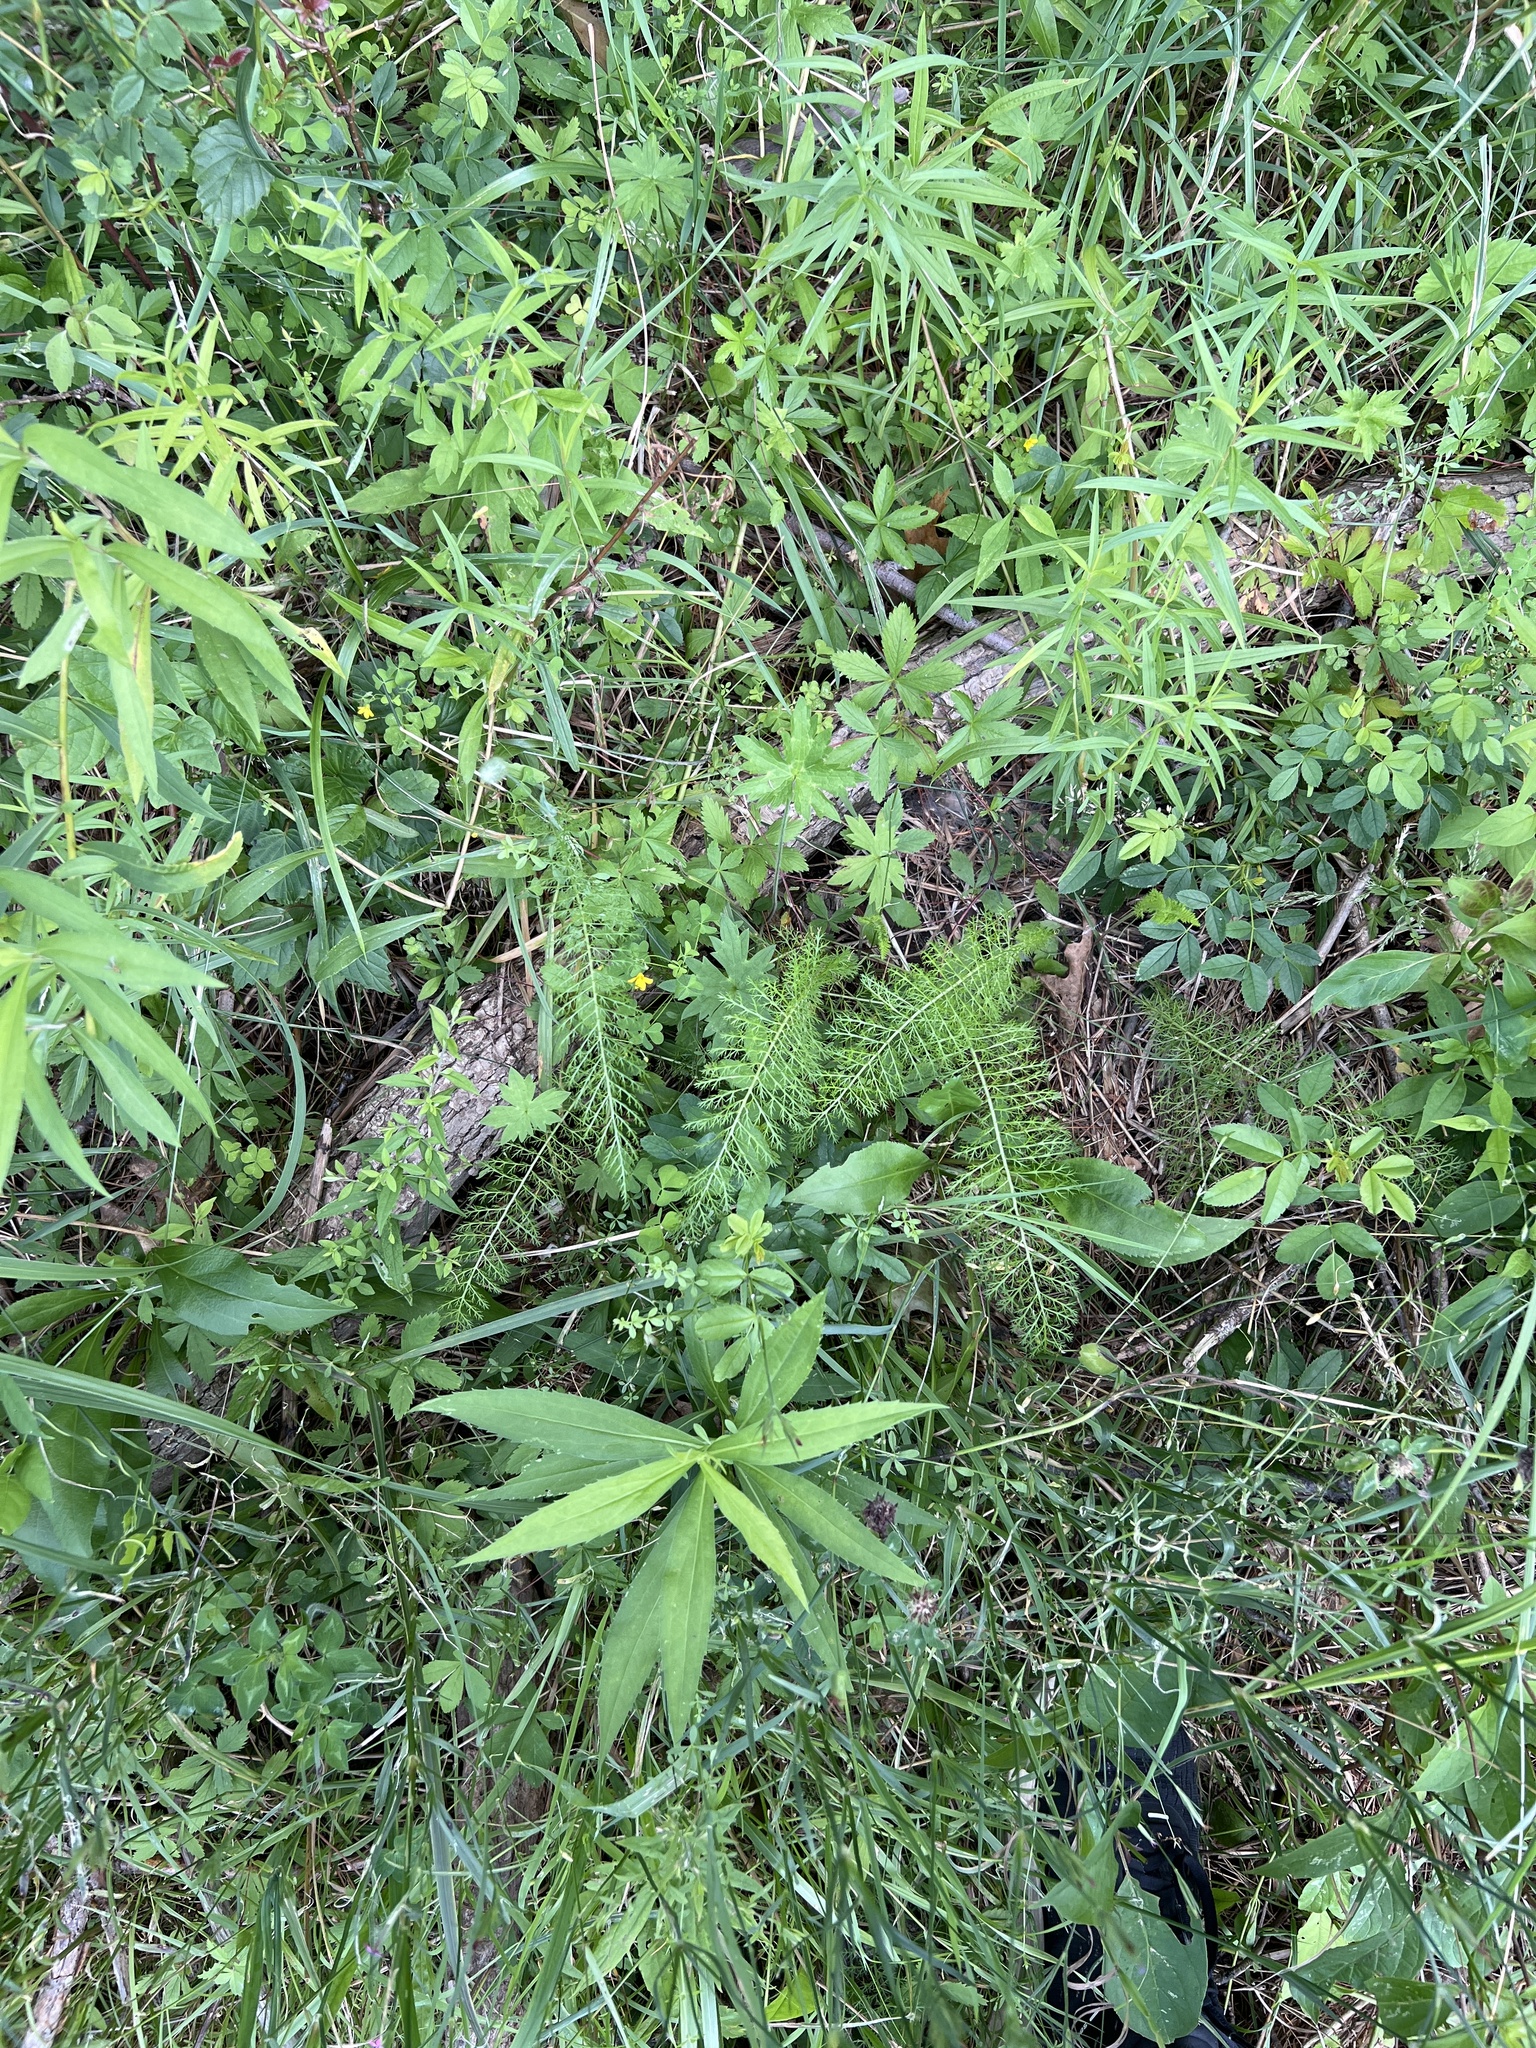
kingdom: Plantae
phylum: Tracheophyta
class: Magnoliopsida
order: Asterales
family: Asteraceae
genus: Achillea
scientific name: Achillea millefolium
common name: Yarrow
